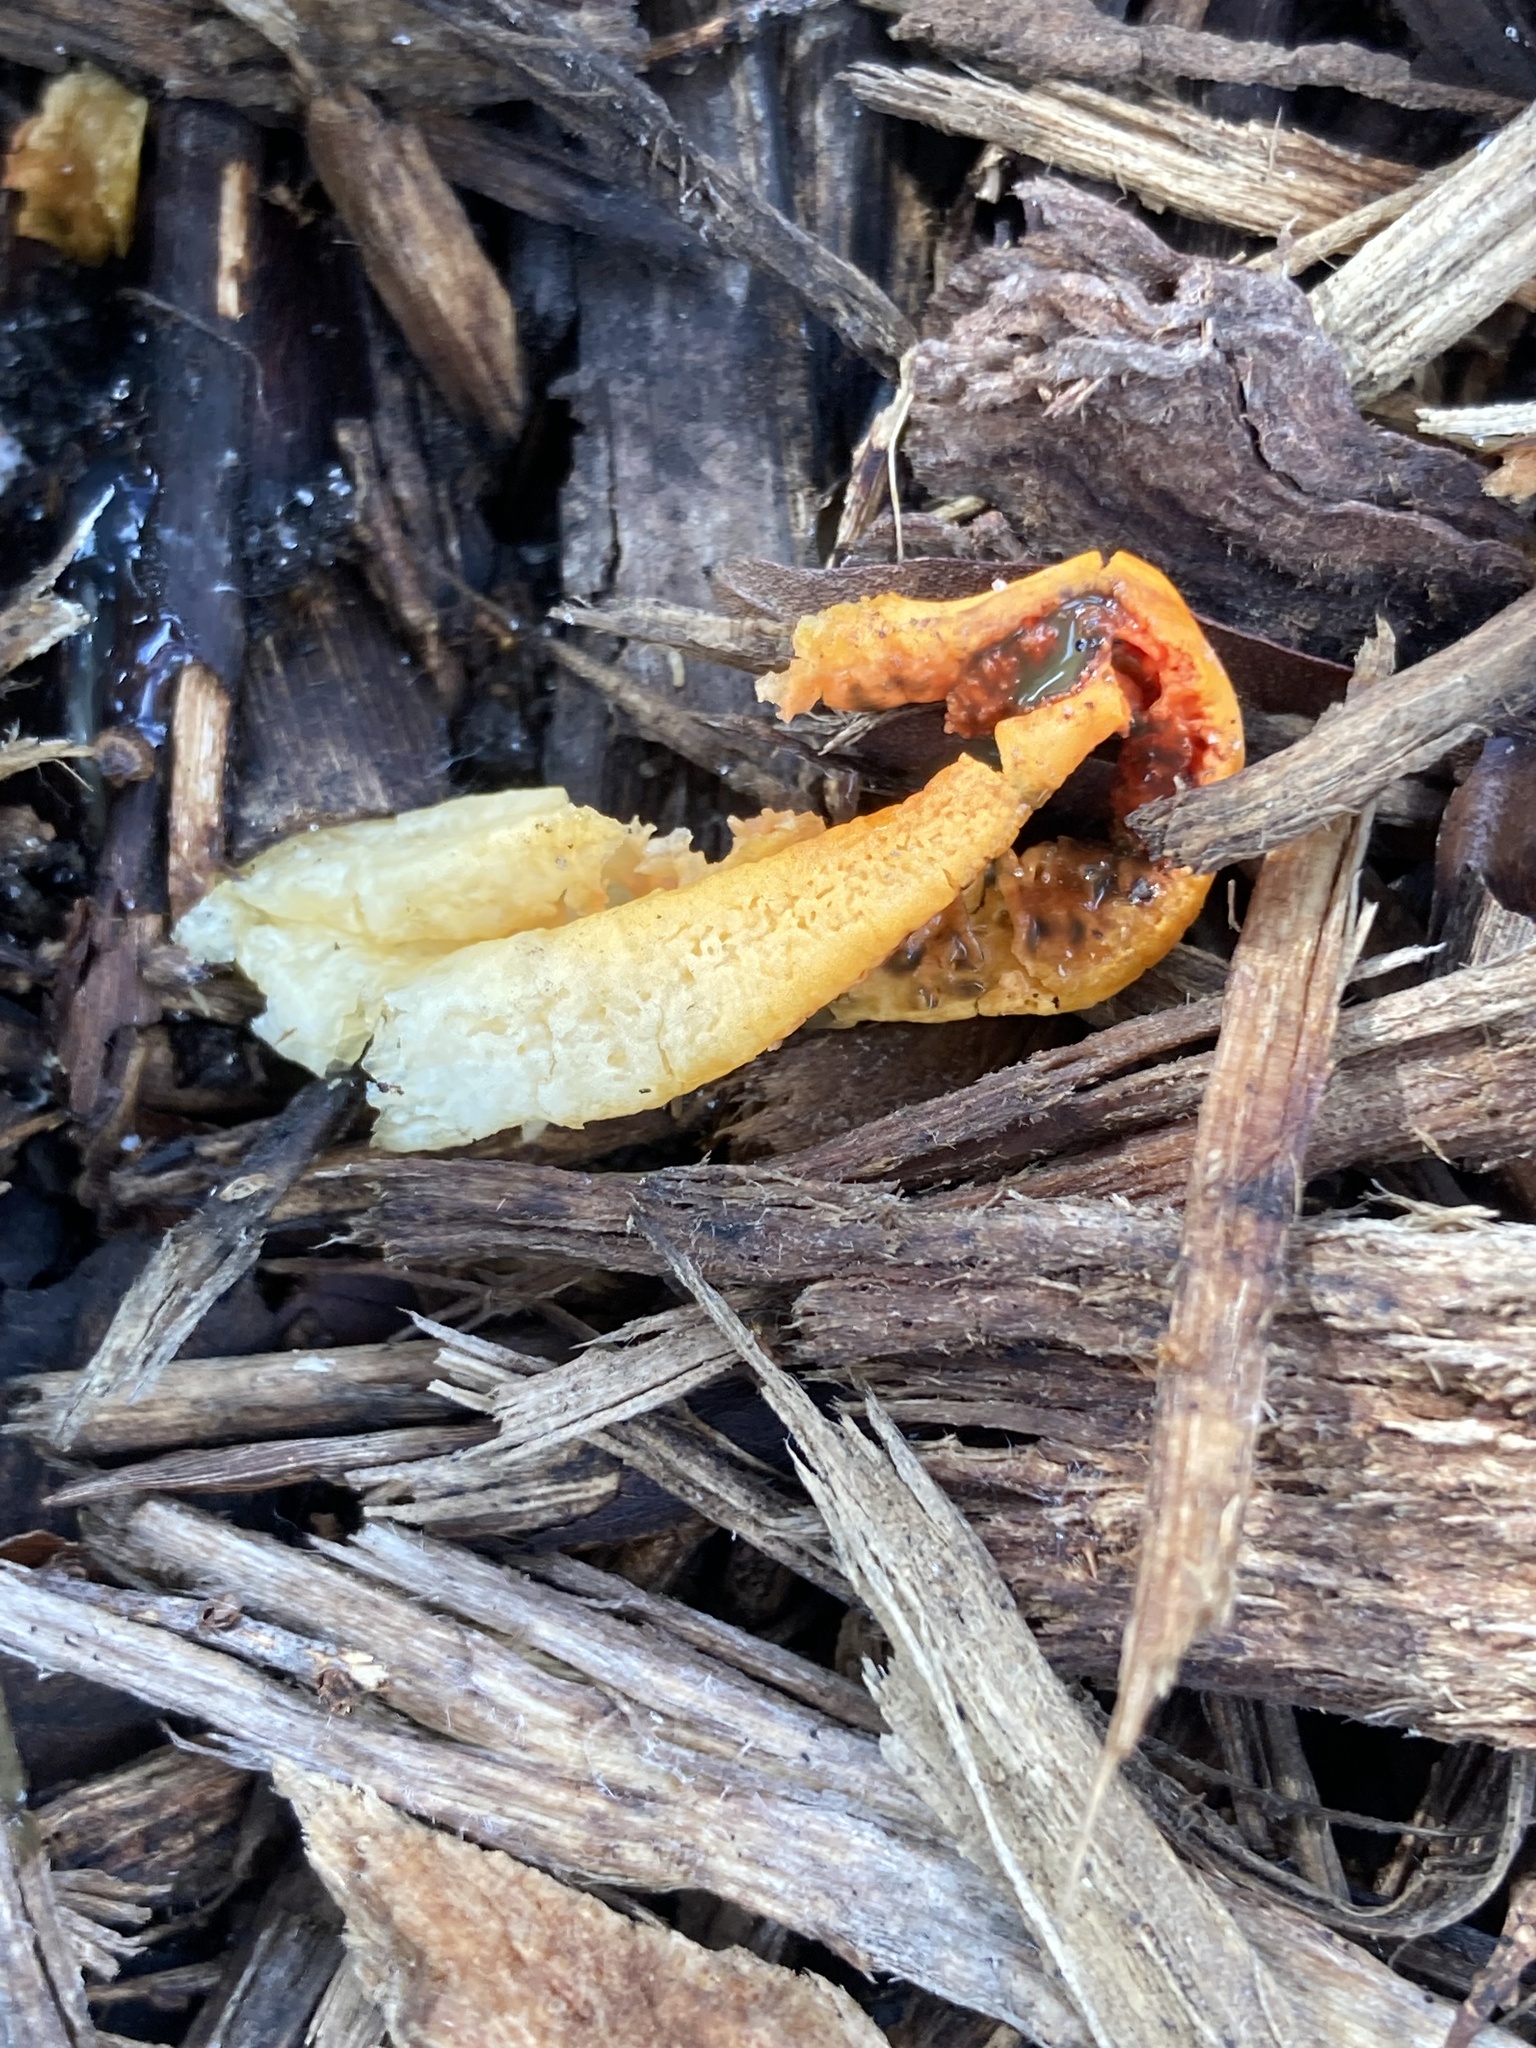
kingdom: Fungi
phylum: Basidiomycota
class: Agaricomycetes
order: Phallales
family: Phallaceae
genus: Laternea
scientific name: Laternea dringii
